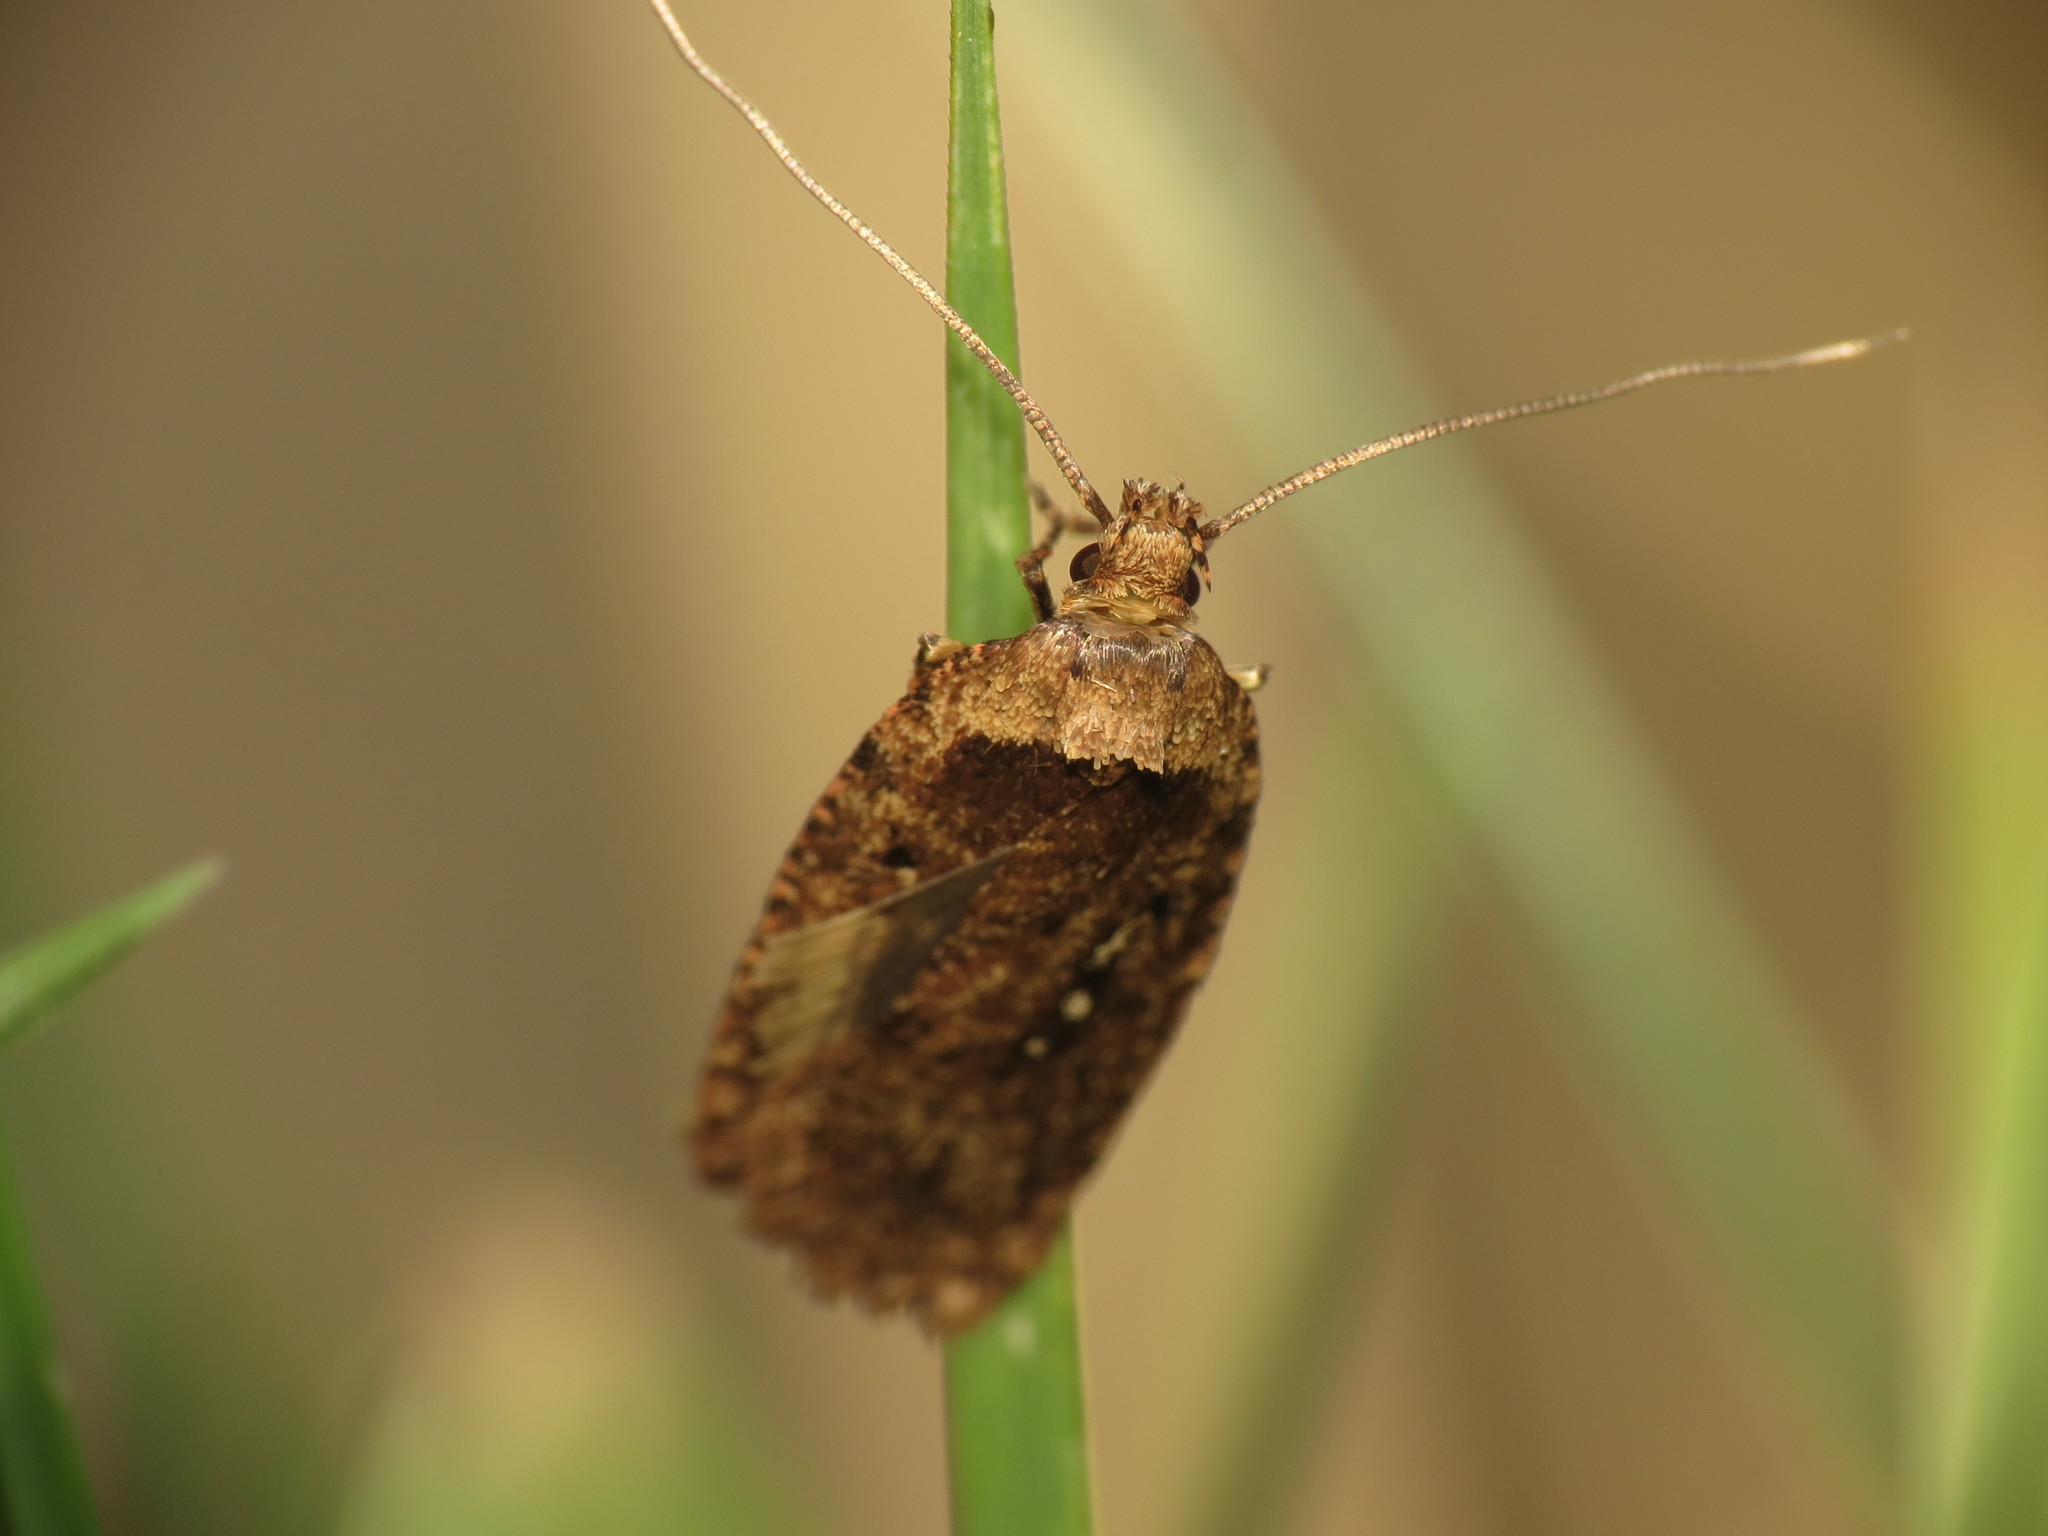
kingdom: Animalia
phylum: Arthropoda
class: Insecta
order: Lepidoptera
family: Depressariidae
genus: Agonopterix
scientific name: Agonopterix heracliana
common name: Common flat-body
